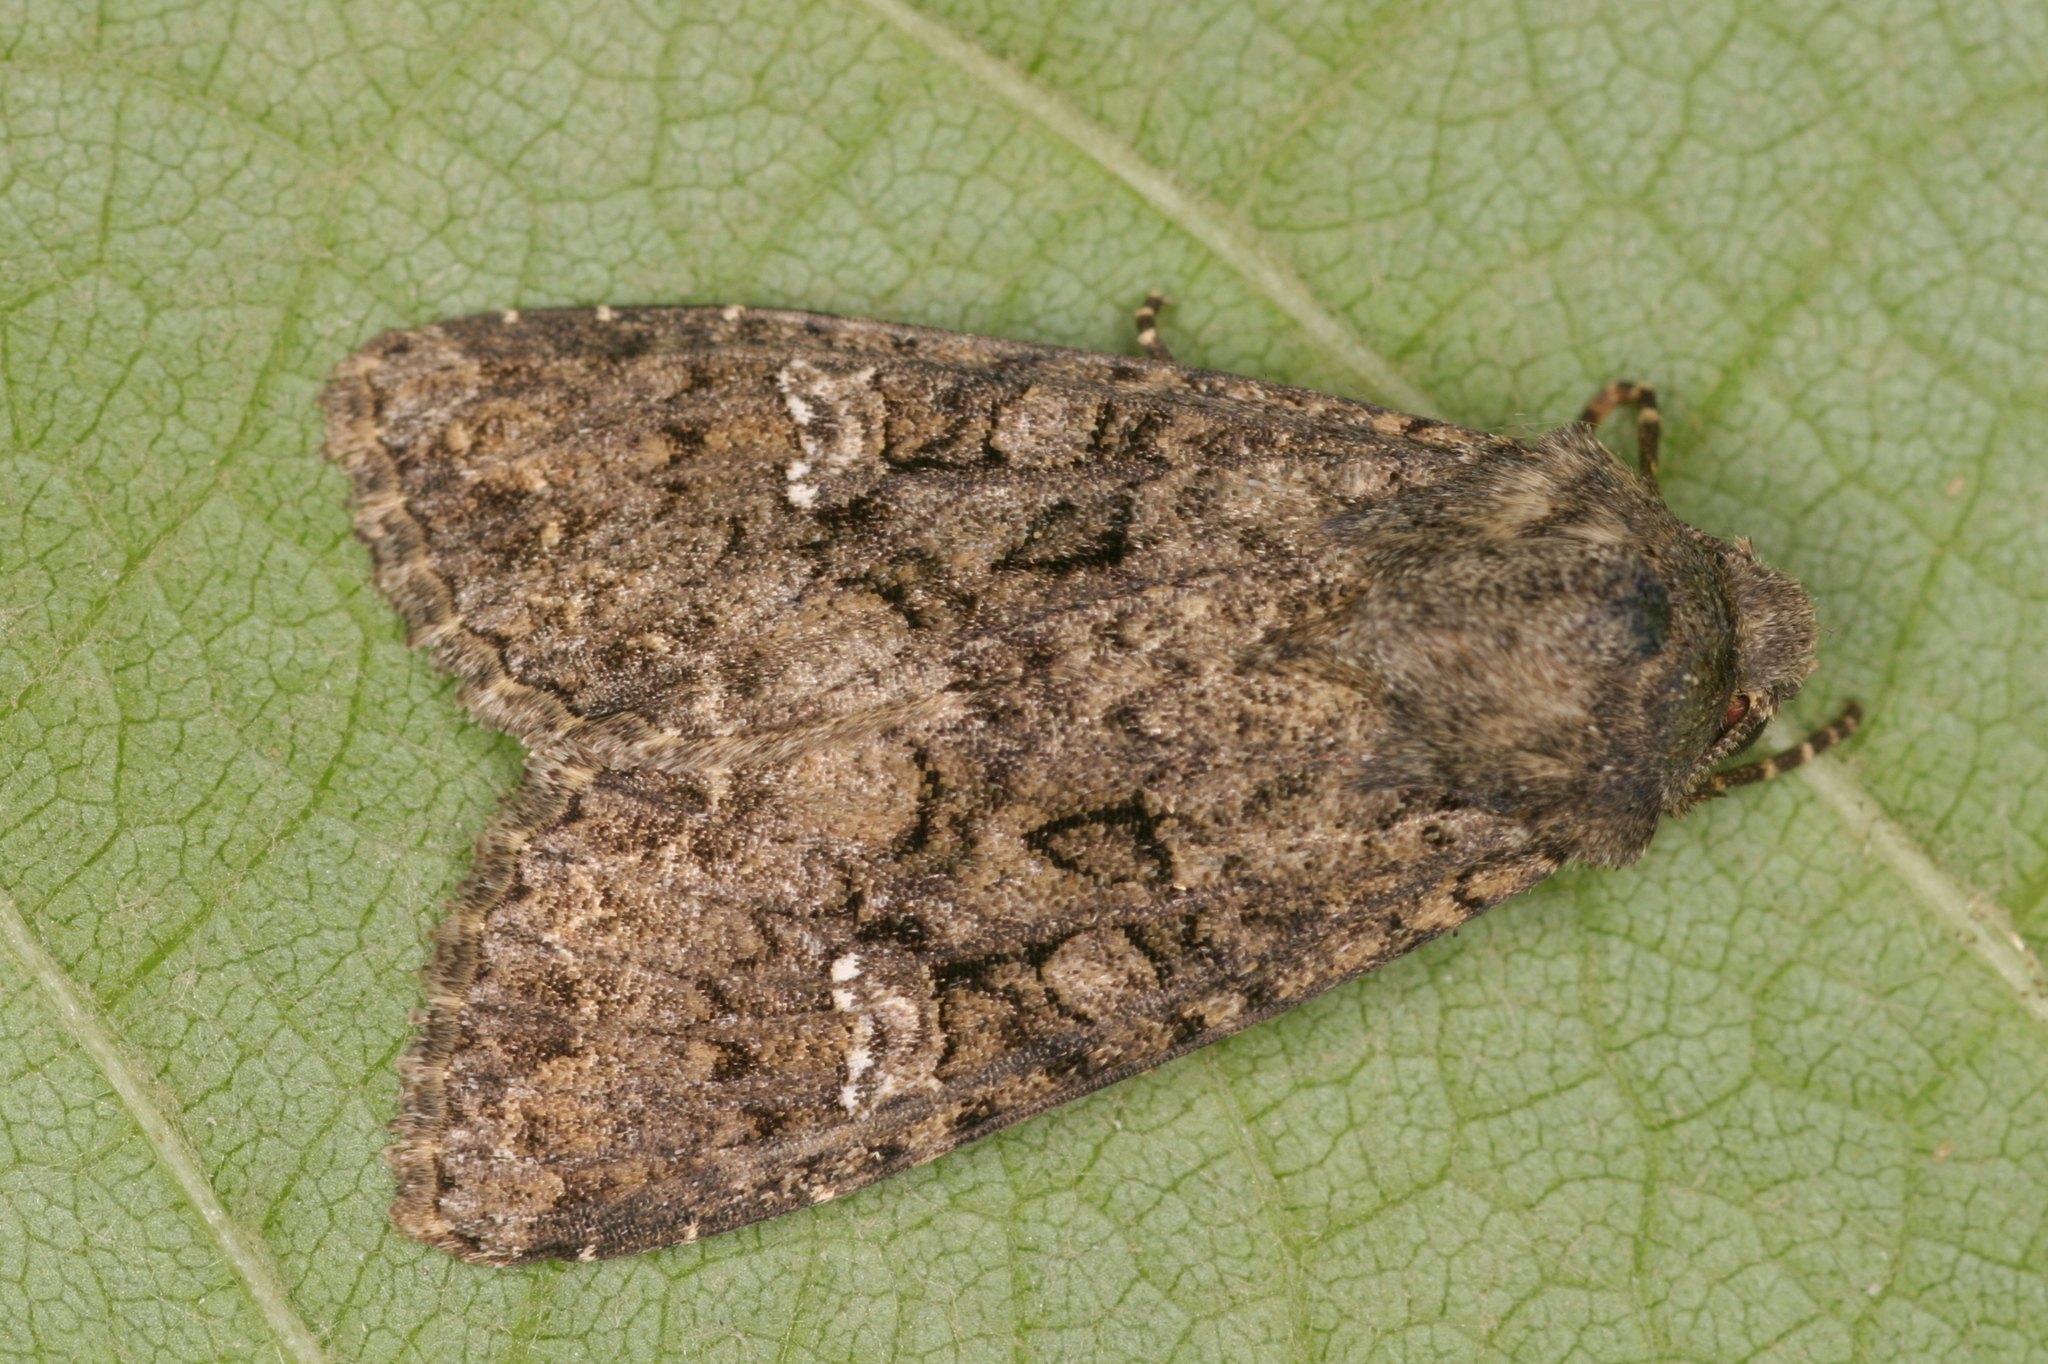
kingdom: Animalia
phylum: Arthropoda
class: Insecta
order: Lepidoptera
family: Noctuidae
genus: Mamestra
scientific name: Mamestra brassicae
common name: Cabbage moth
